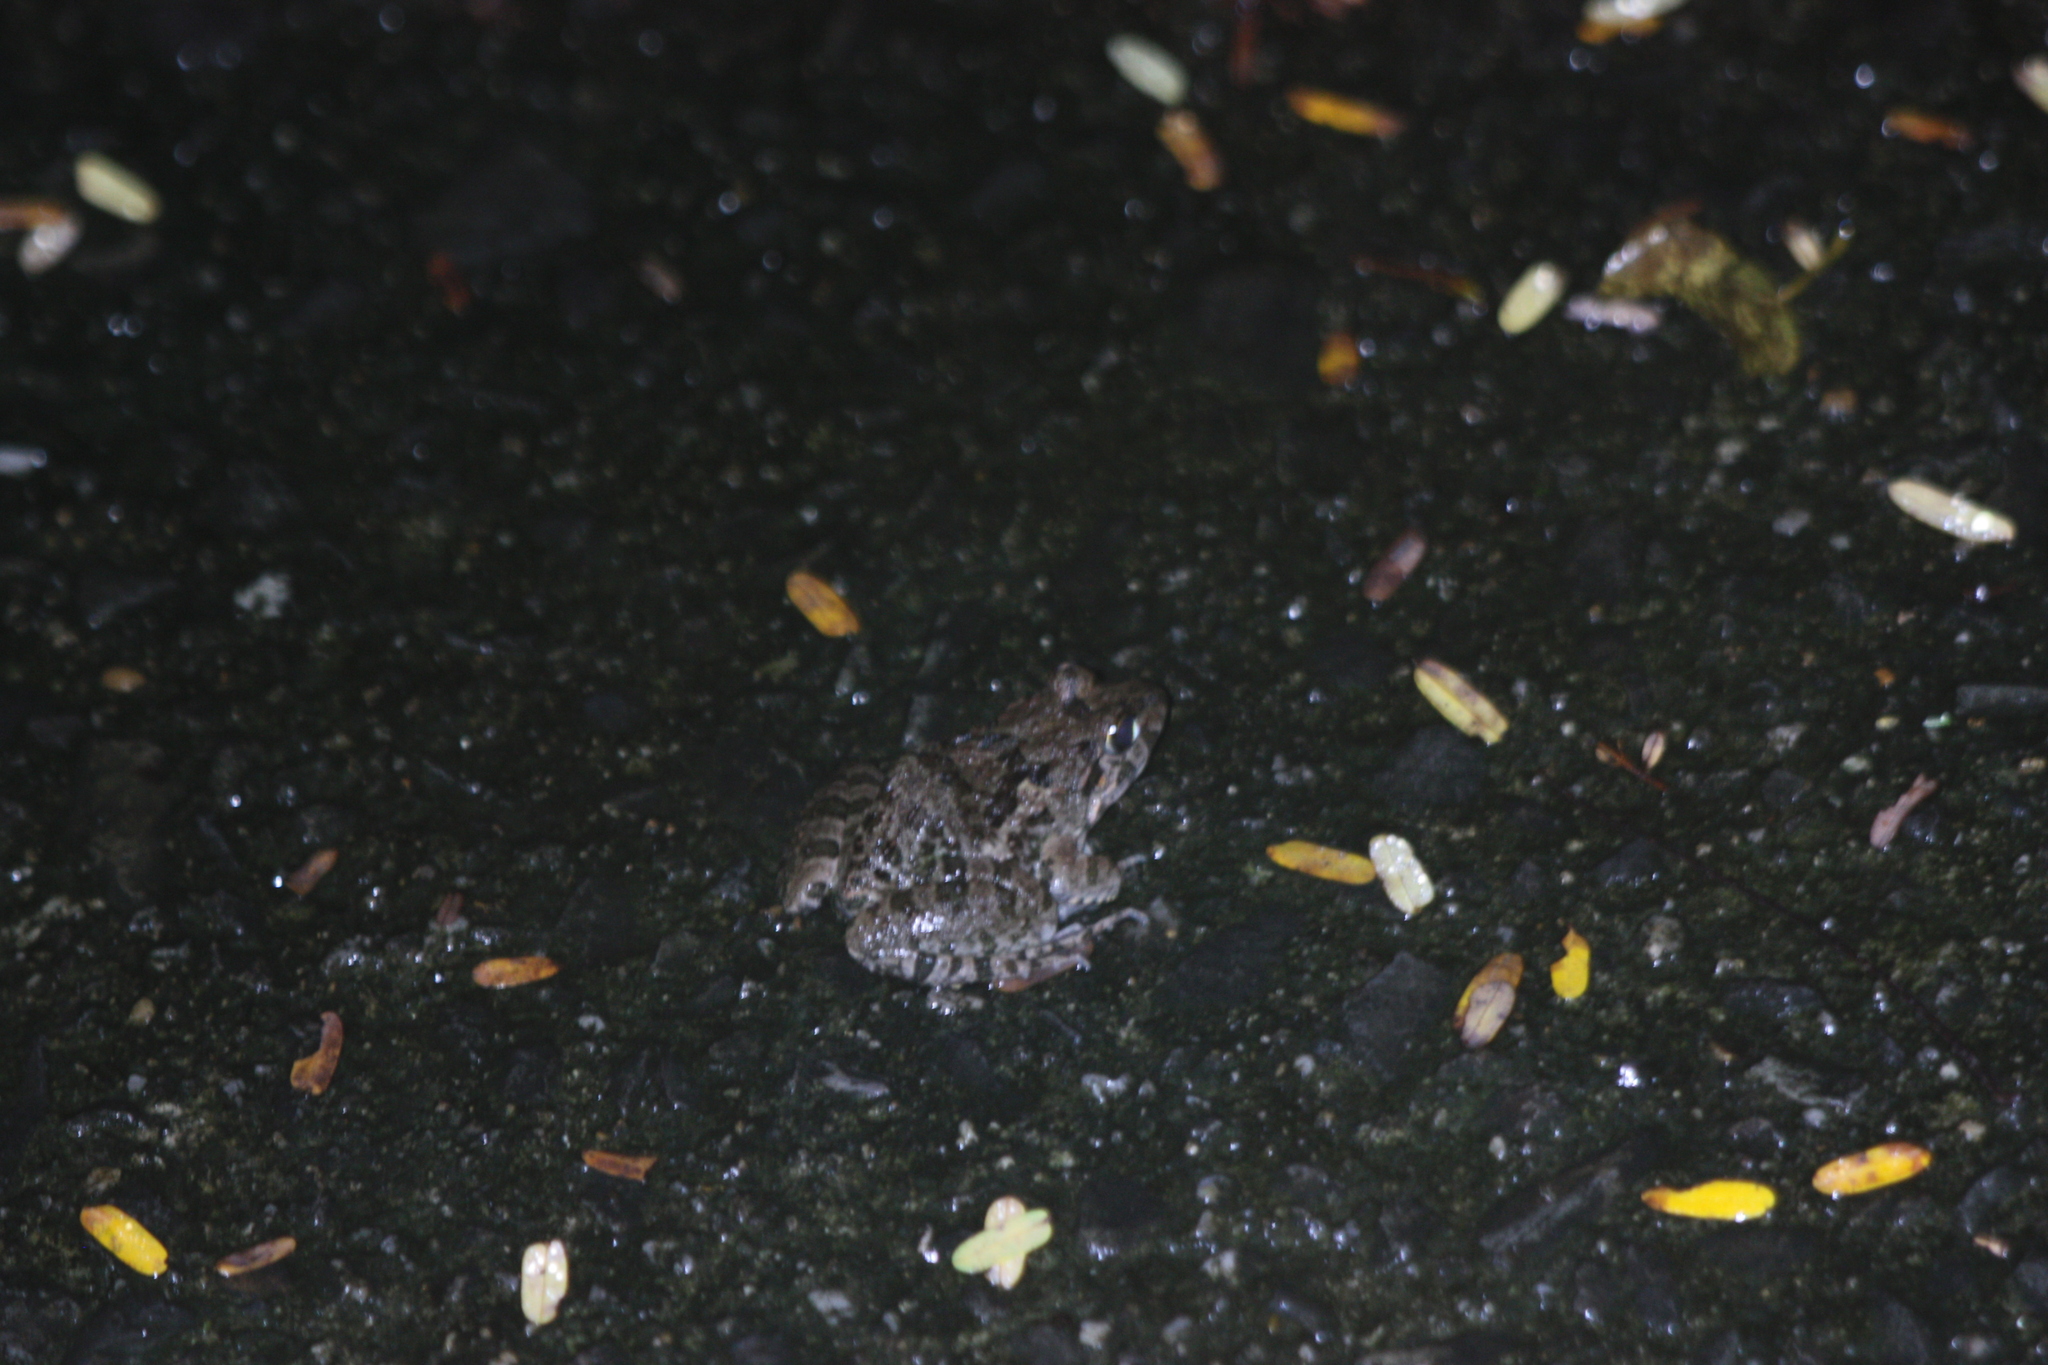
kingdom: Animalia
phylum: Chordata
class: Amphibia
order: Anura
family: Dicroglossidae
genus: Fejervarya
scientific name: Fejervarya limnocharis
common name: Asian grass frog/common pond frog/field frog/grass frog/indian rice frog
